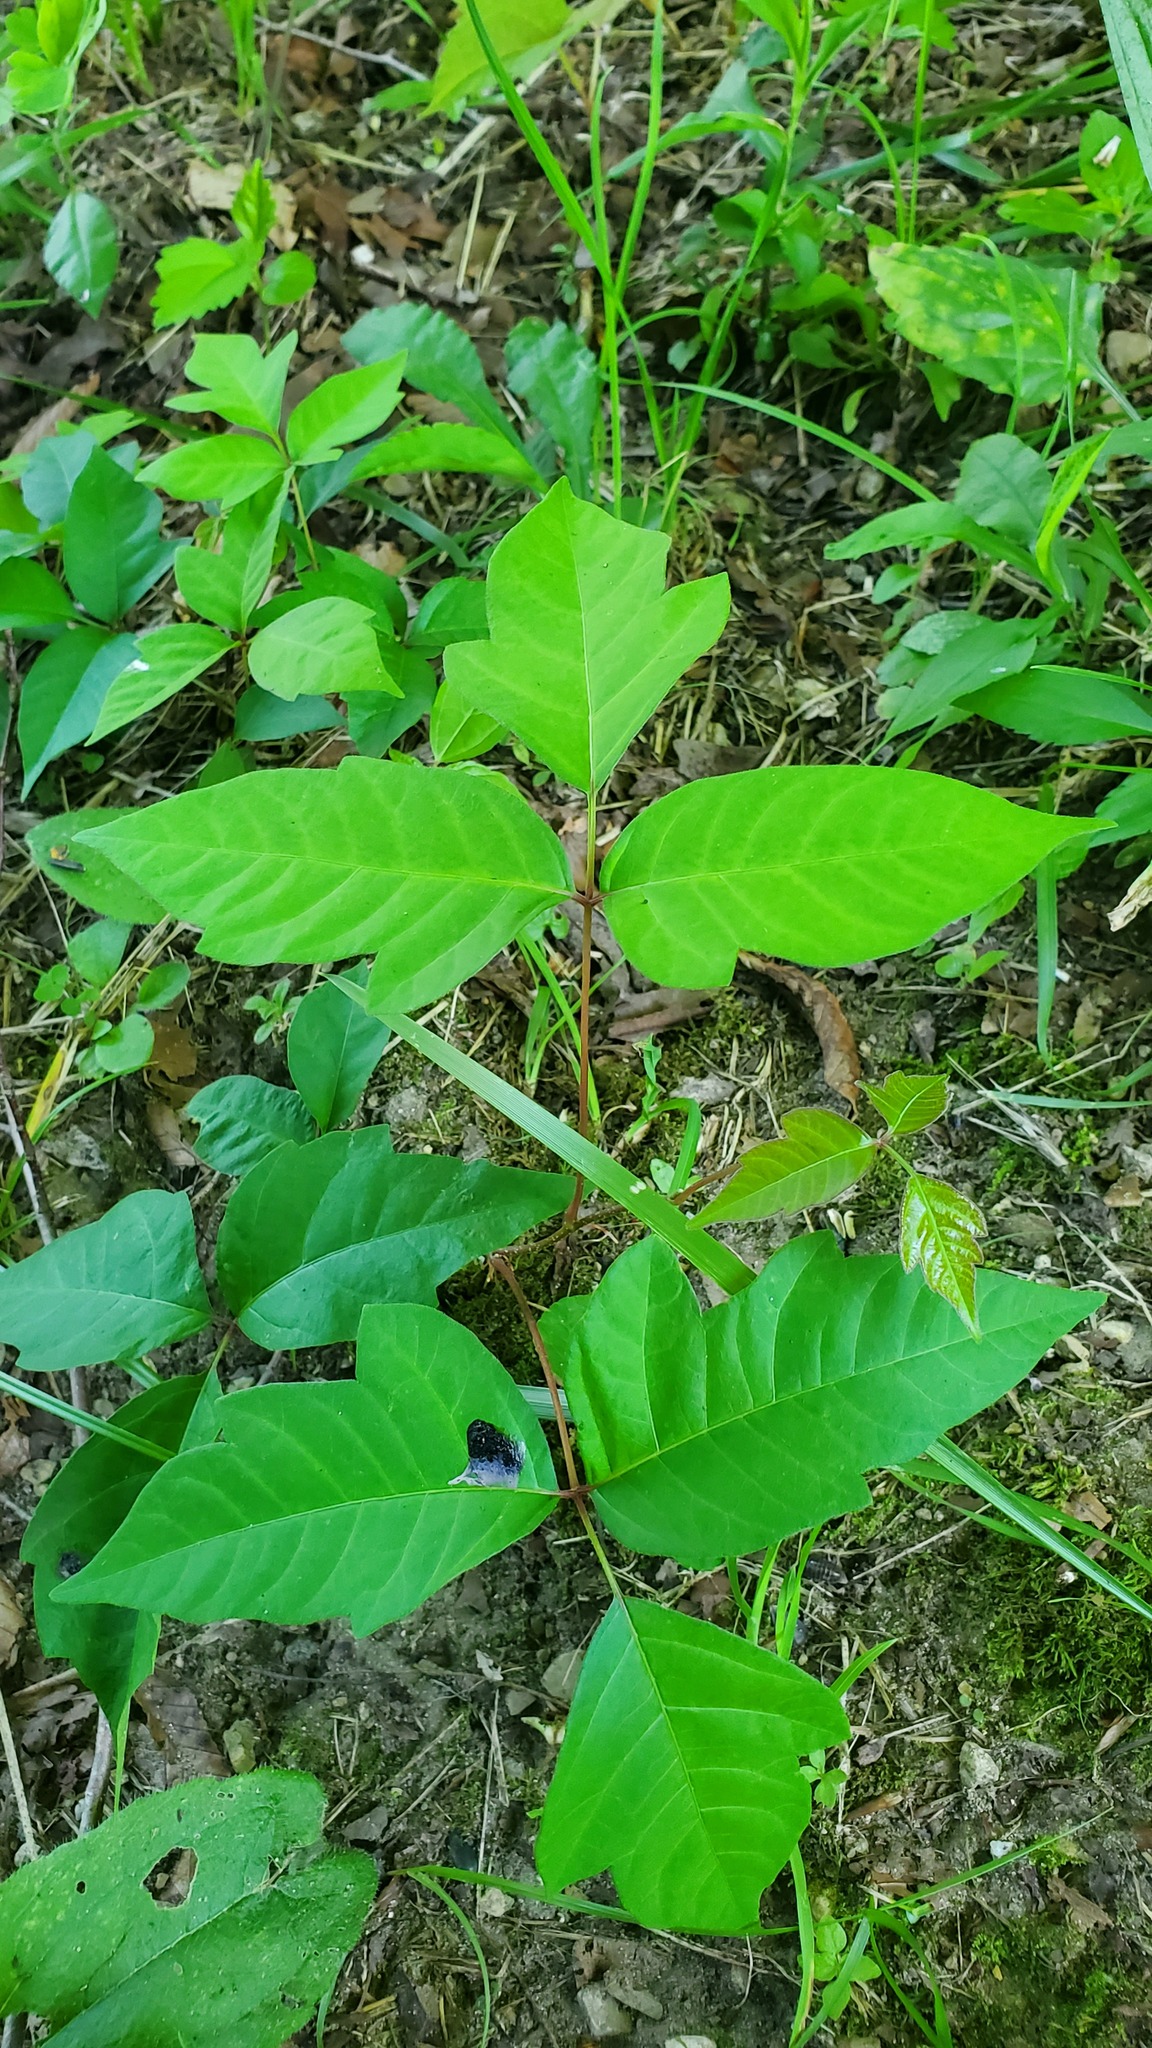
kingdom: Plantae
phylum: Tracheophyta
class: Magnoliopsida
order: Sapindales
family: Anacardiaceae
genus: Toxicodendron
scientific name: Toxicodendron radicans
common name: Poison ivy
